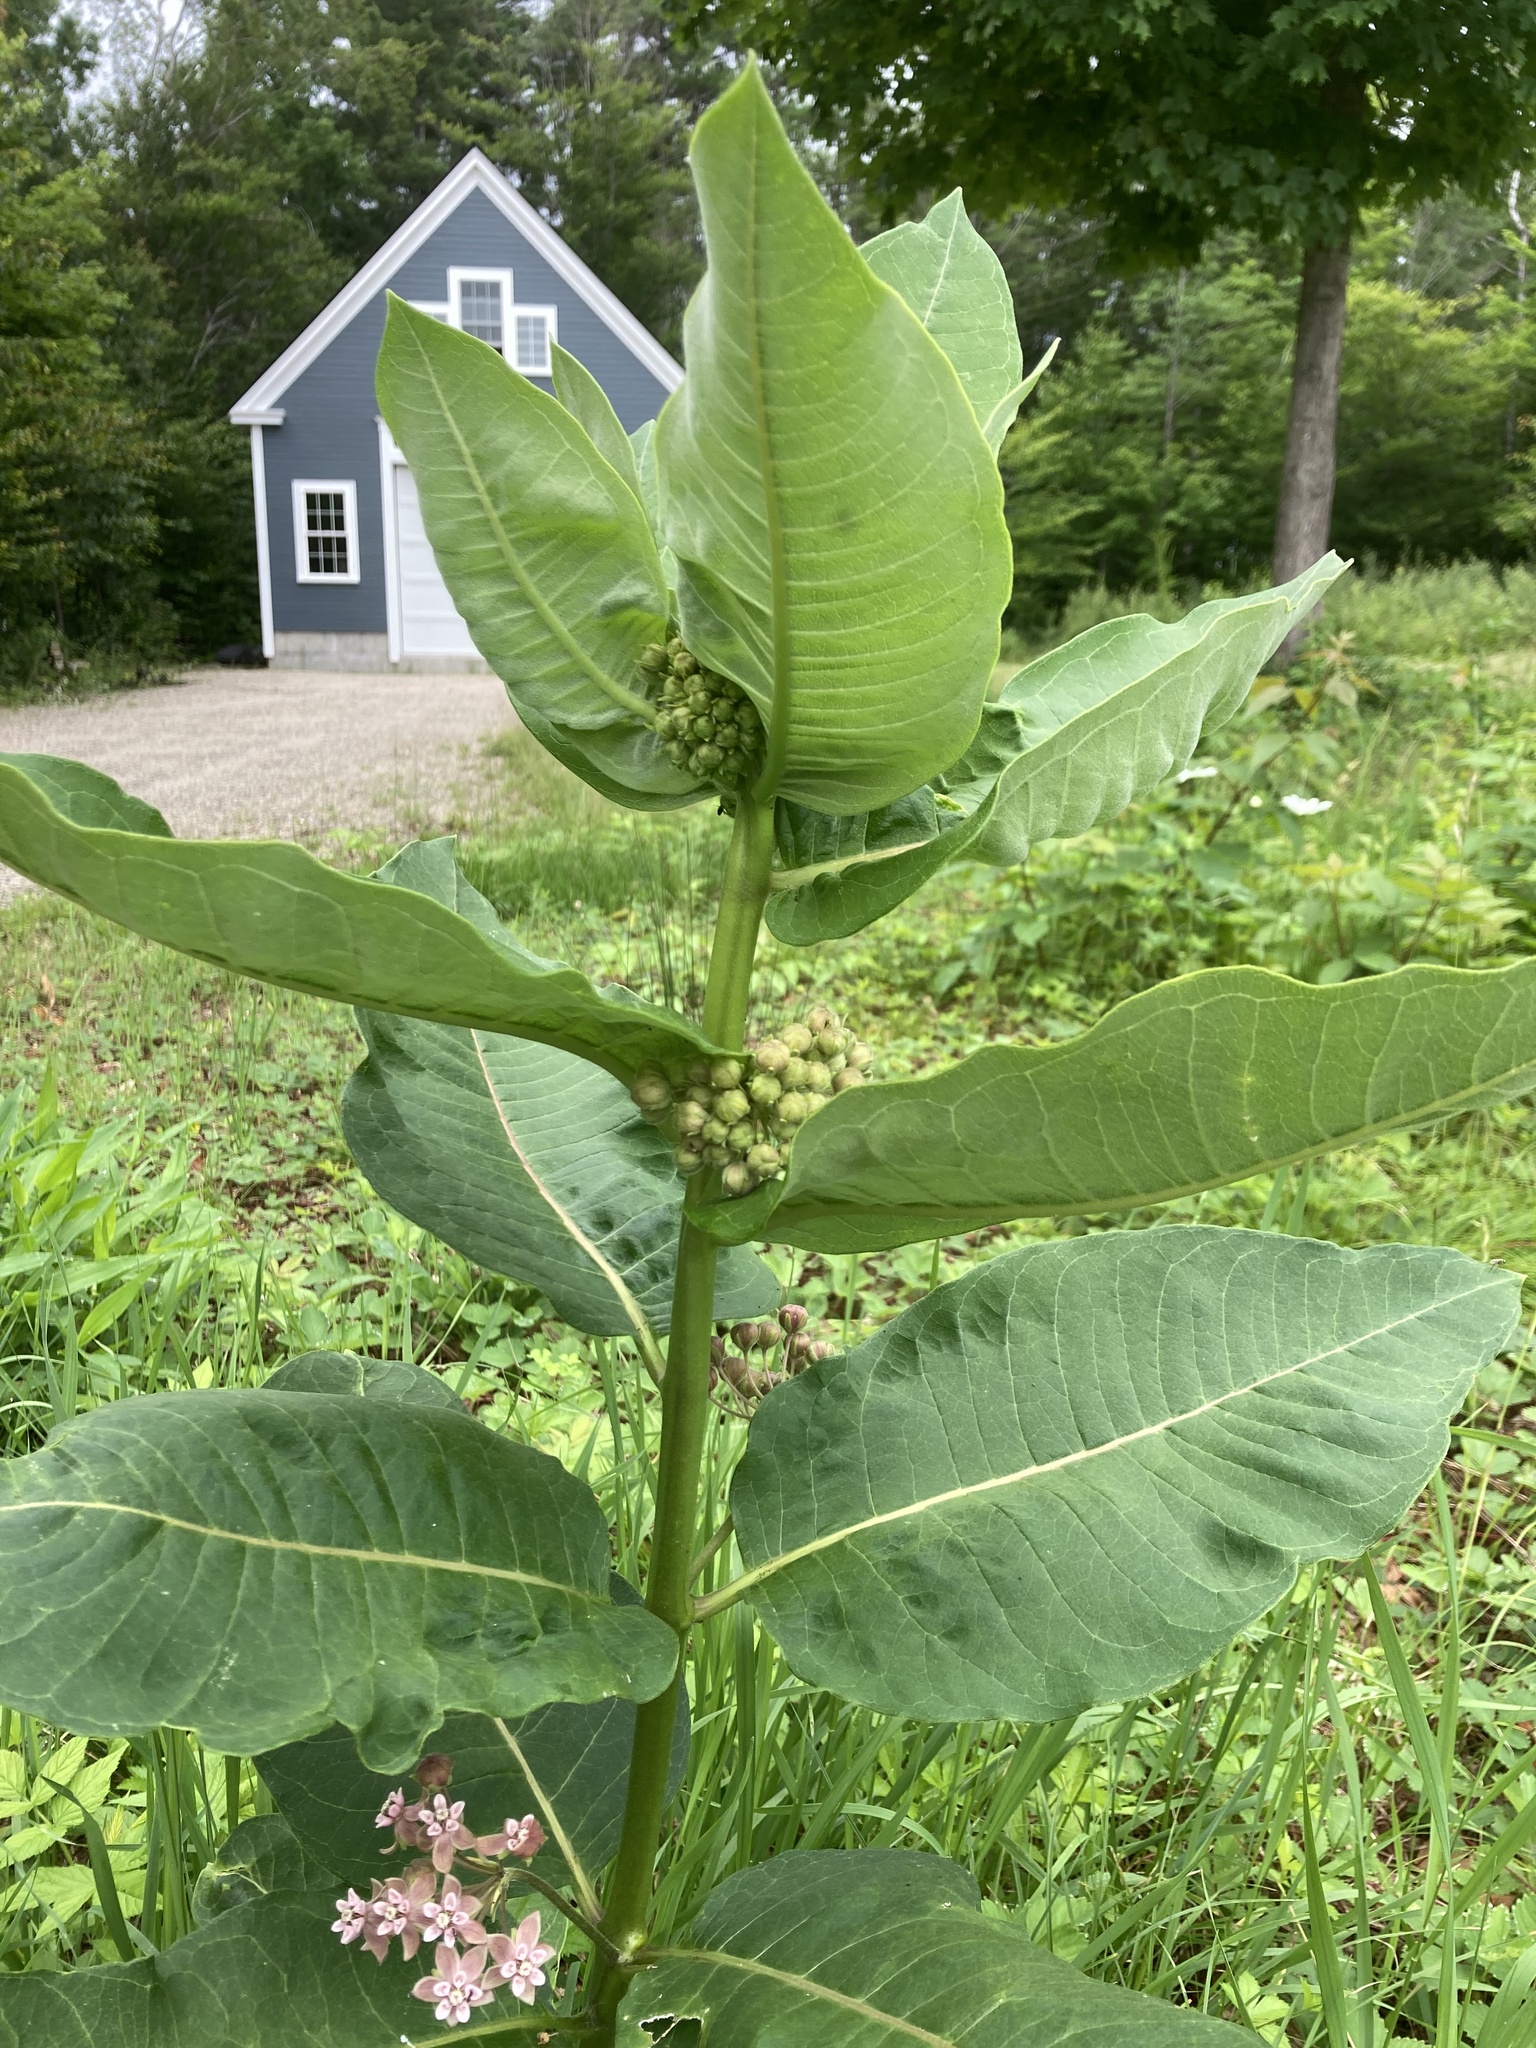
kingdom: Plantae
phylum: Tracheophyta
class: Magnoliopsida
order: Gentianales
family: Apocynaceae
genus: Asclepias
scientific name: Asclepias syriaca
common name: Common milkweed
